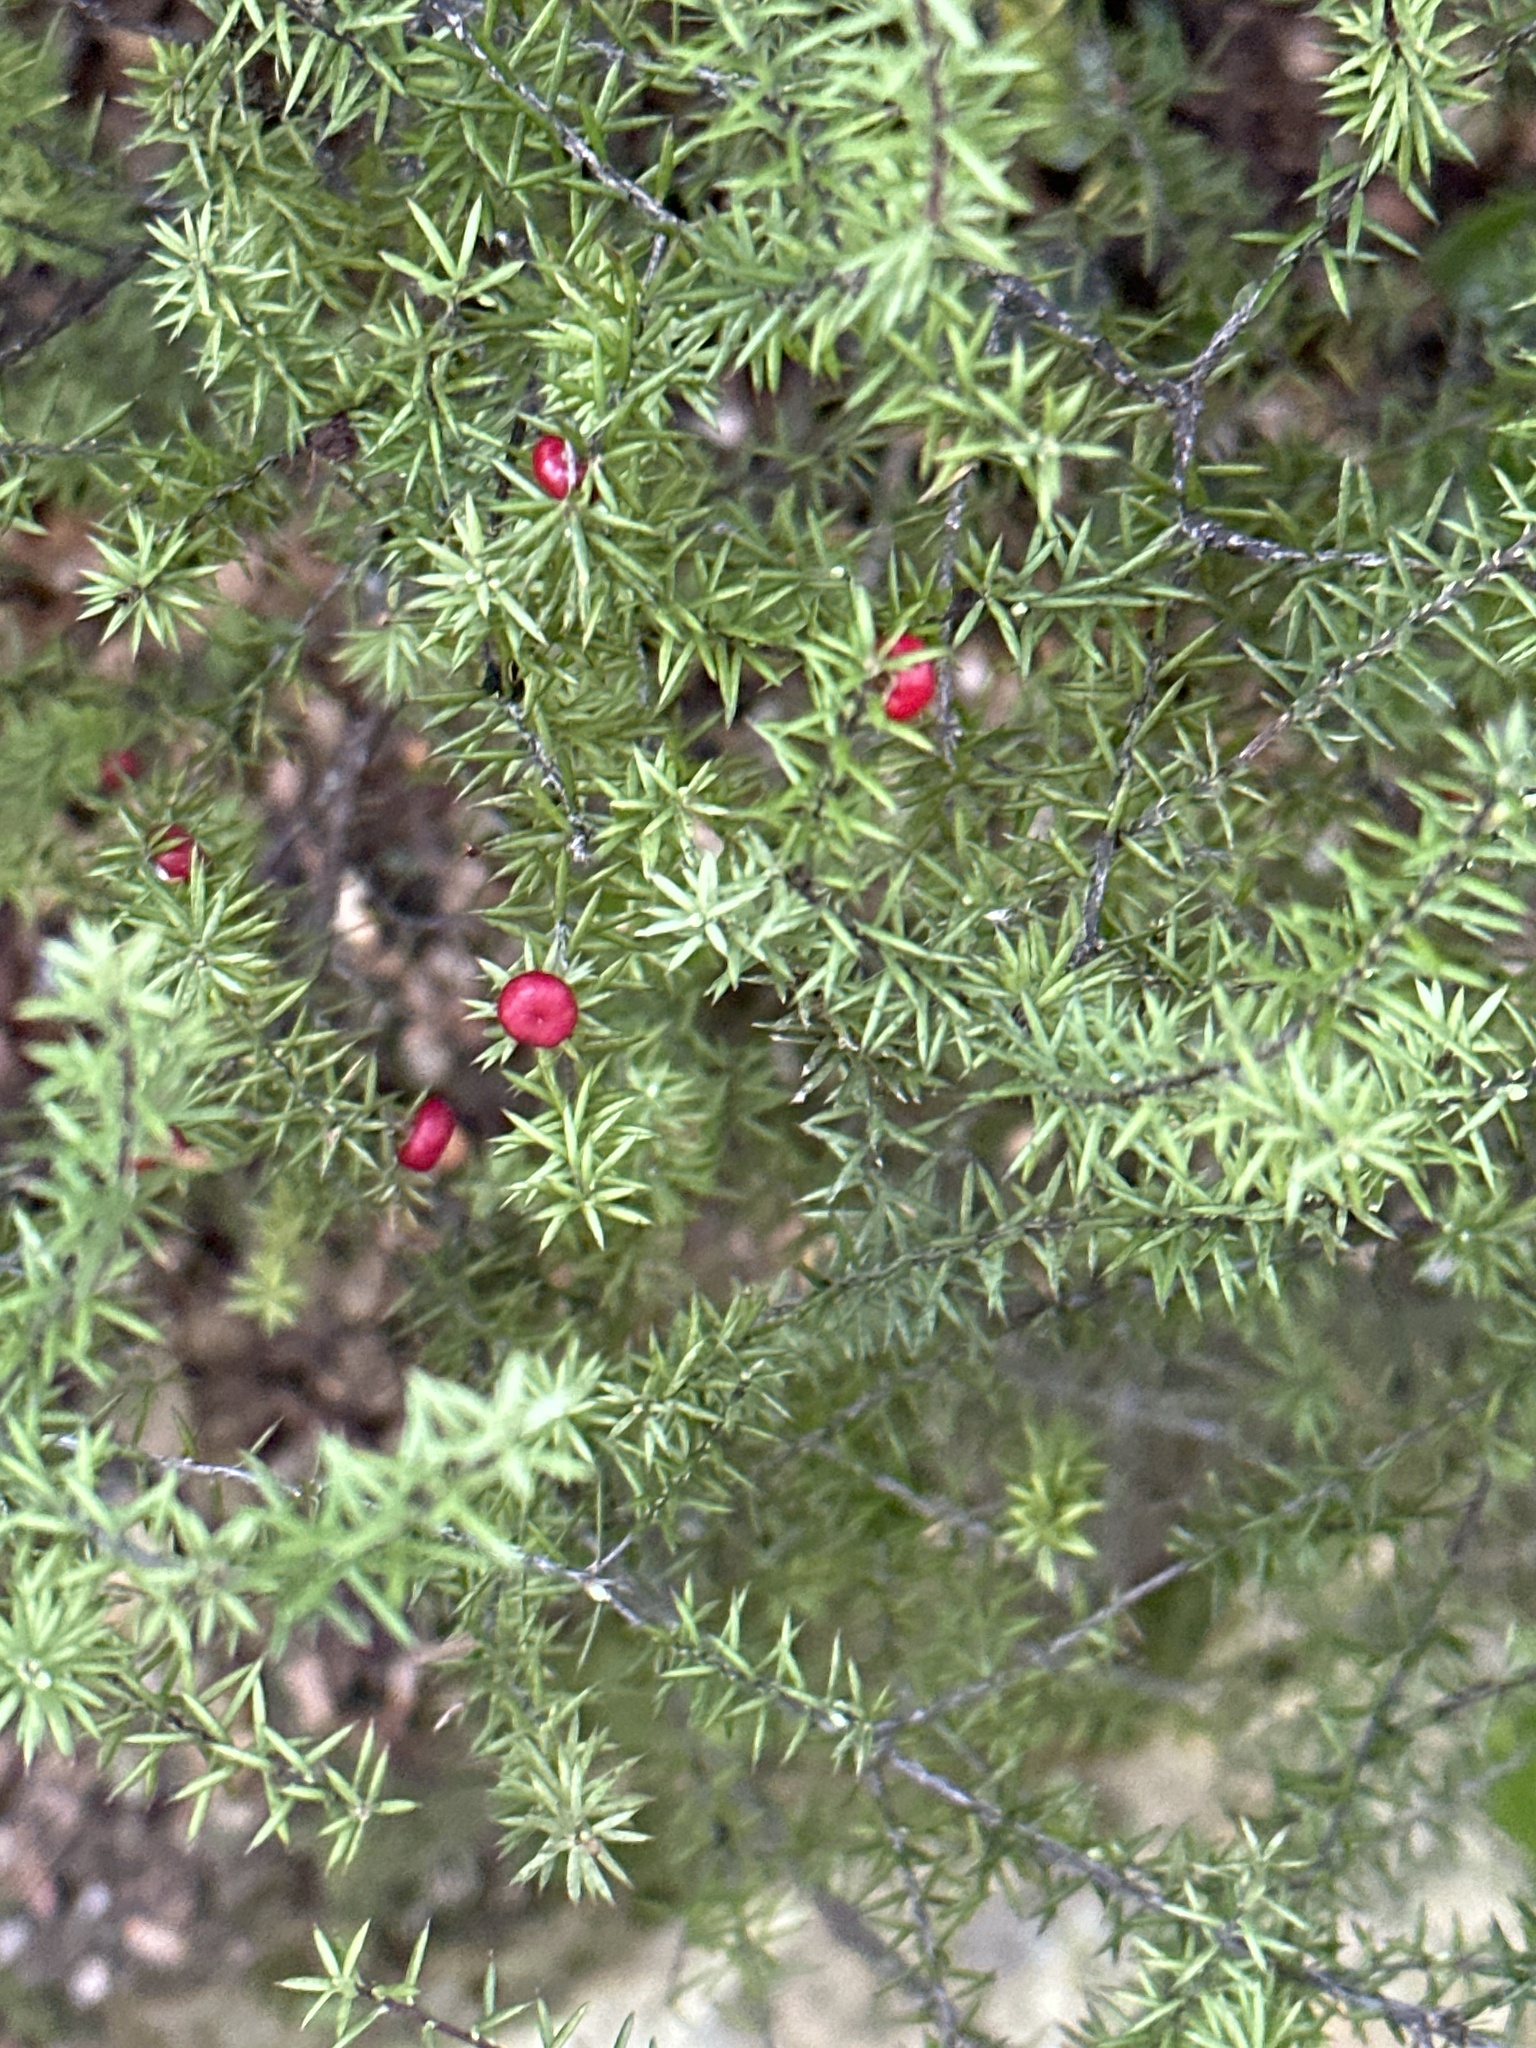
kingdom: Plantae
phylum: Tracheophyta
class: Magnoliopsida
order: Ericales
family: Ericaceae
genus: Leucopogon
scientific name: Leucopogon fasciculatus
